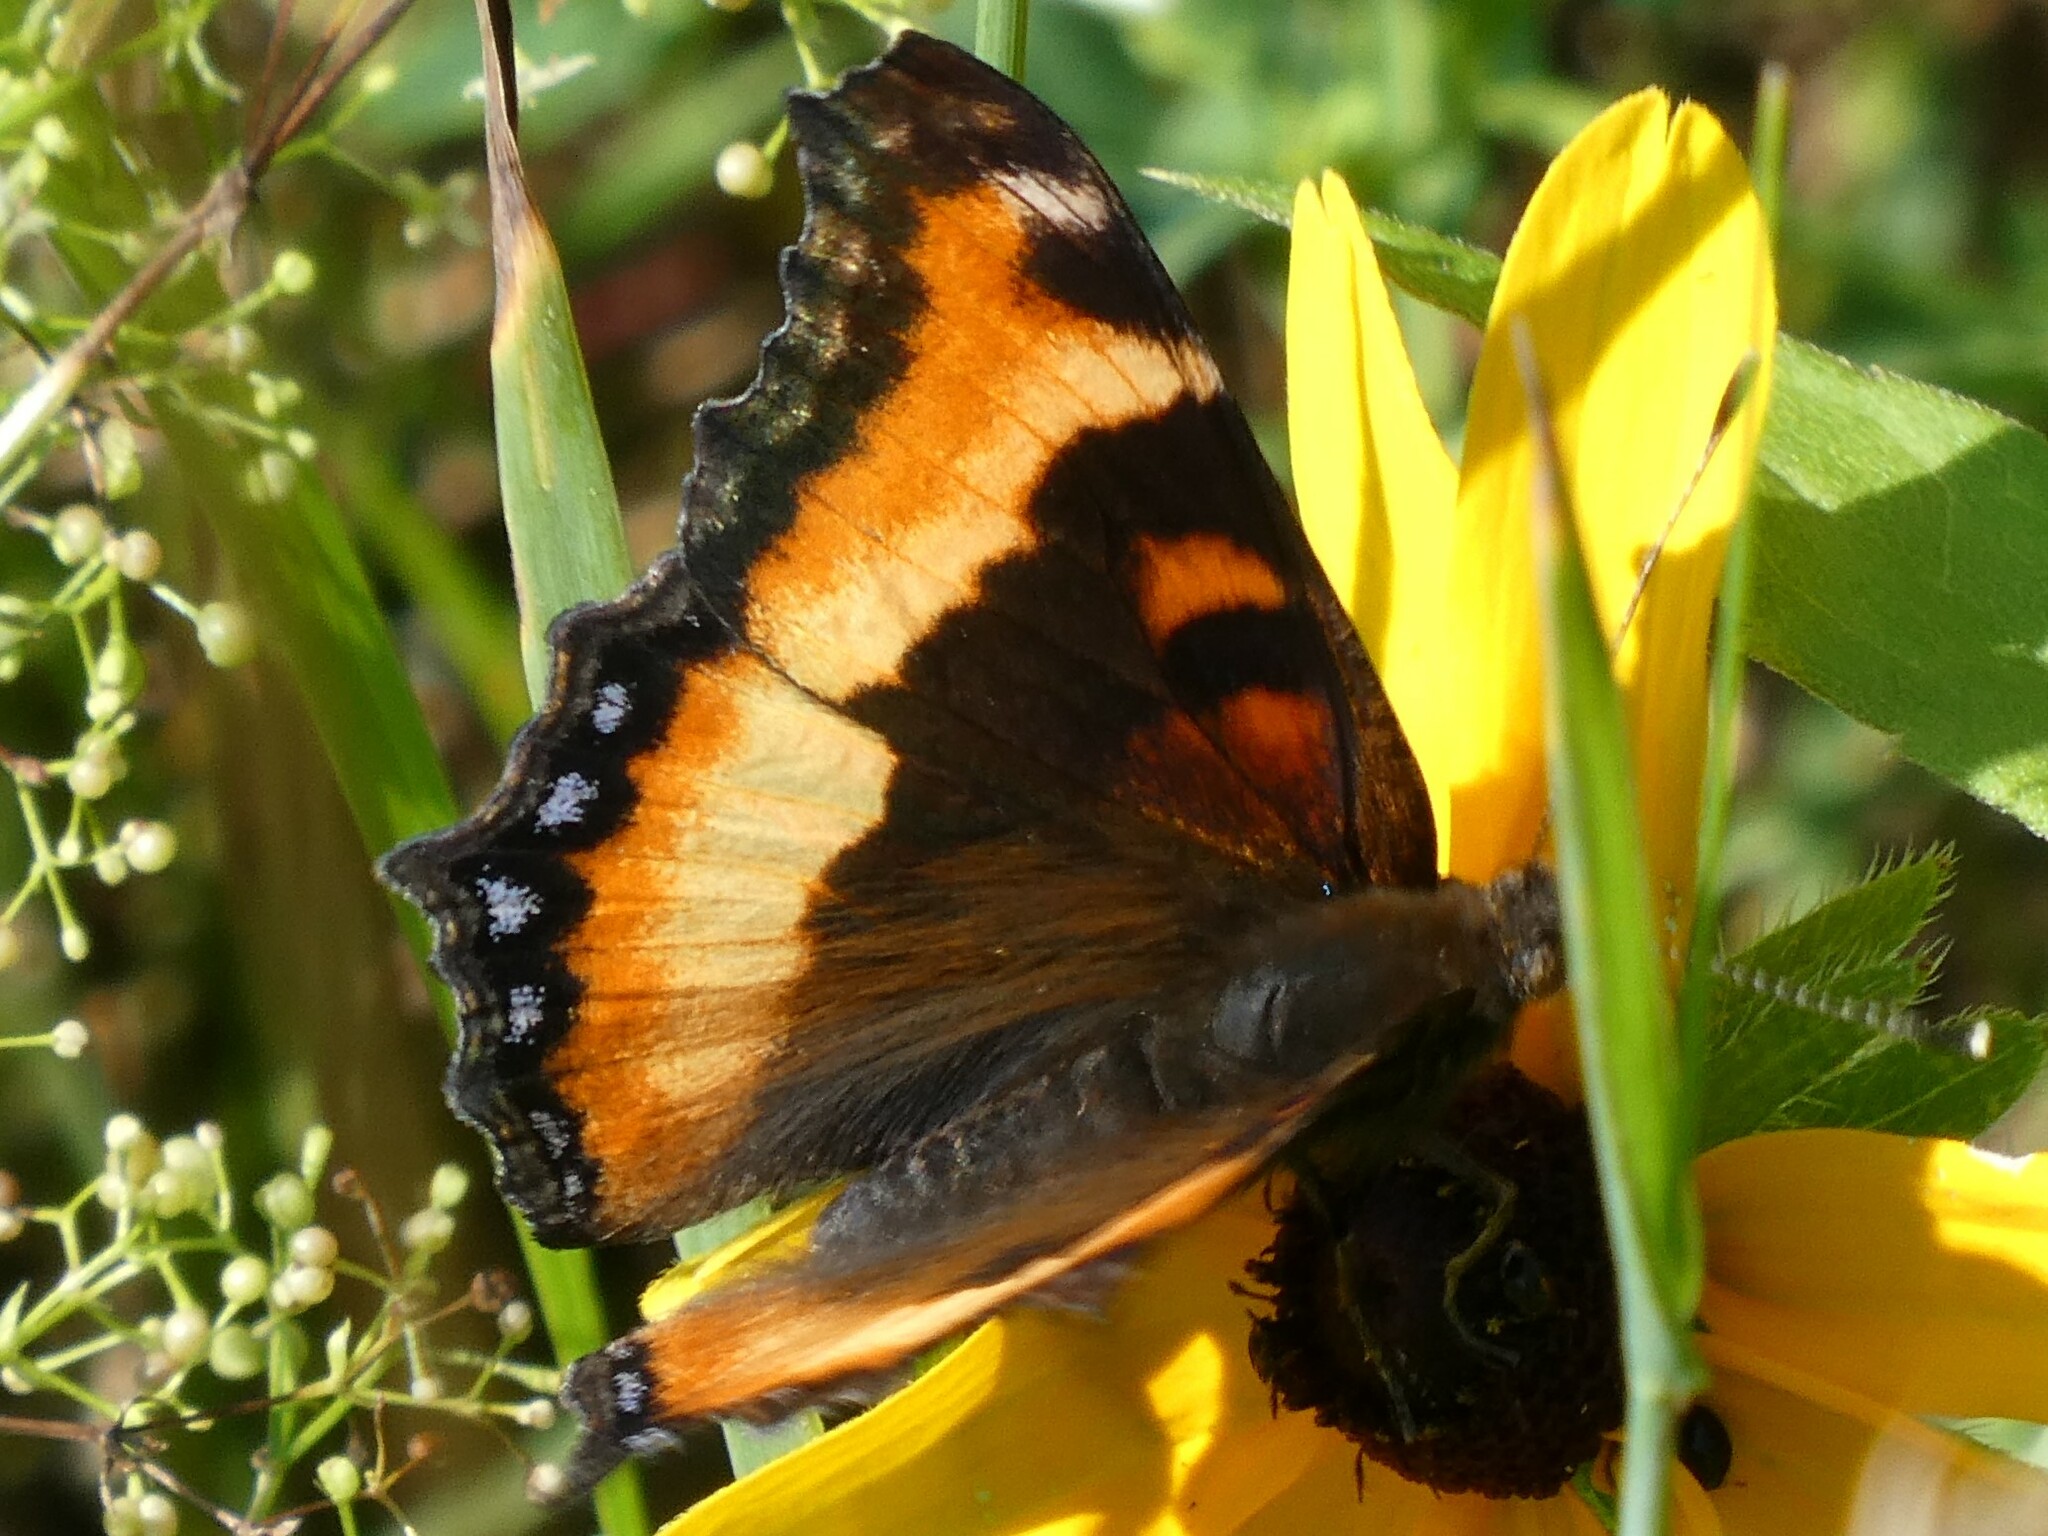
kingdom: Animalia
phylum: Arthropoda
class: Insecta
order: Lepidoptera
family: Nymphalidae
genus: Aglais
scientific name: Aglais milberti
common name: Milbert's tortoiseshell
